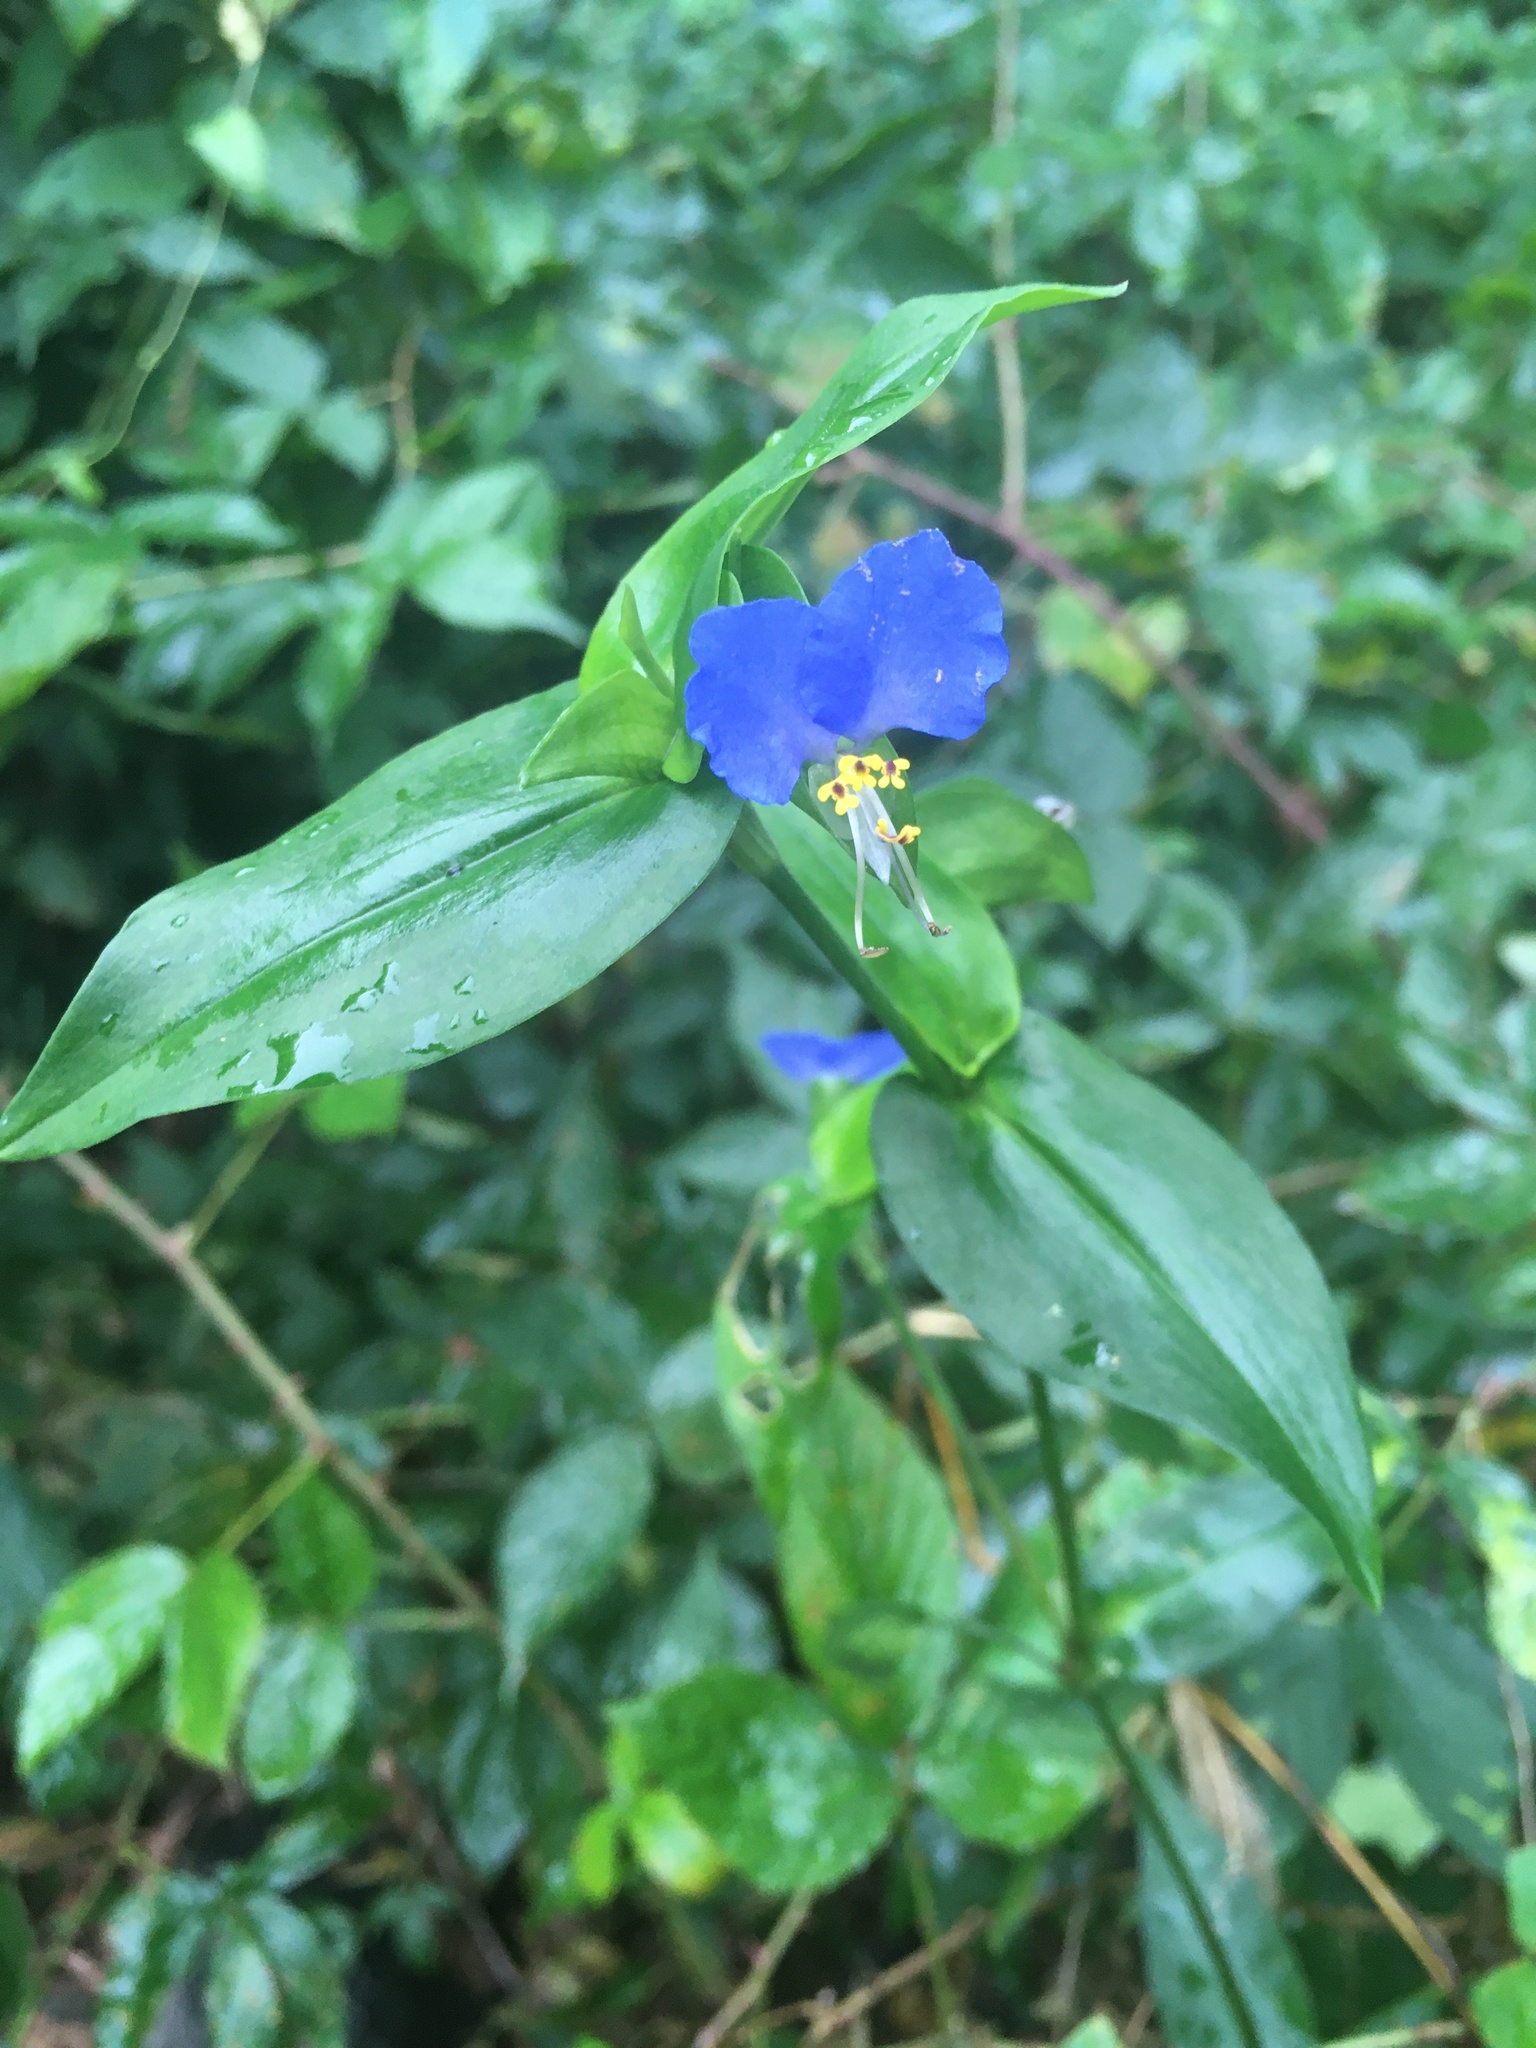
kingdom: Plantae
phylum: Tracheophyta
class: Liliopsida
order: Commelinales
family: Commelinaceae
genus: Commelina
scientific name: Commelina communis
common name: Asiatic dayflower
